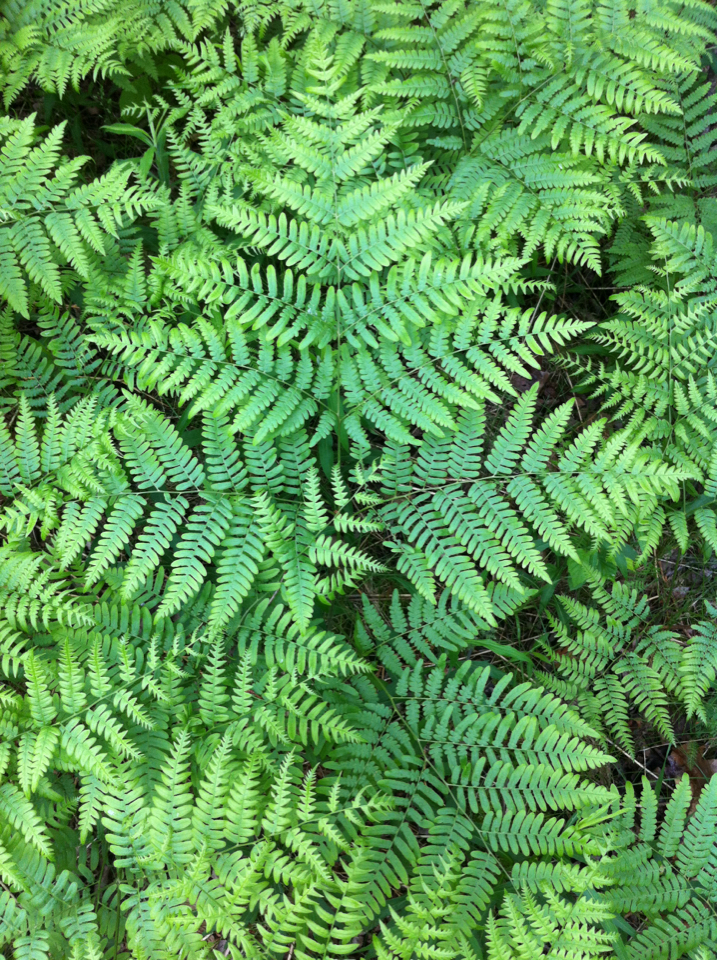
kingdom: Plantae
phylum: Tracheophyta
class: Polypodiopsida
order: Polypodiales
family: Dennstaedtiaceae
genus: Pteridium
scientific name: Pteridium aquilinum
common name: Bracken
